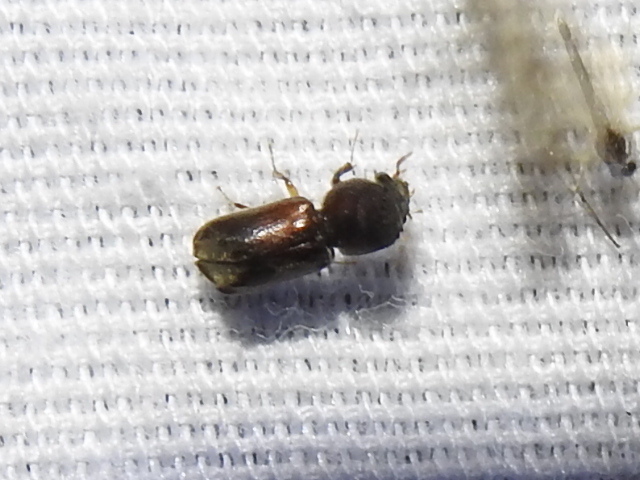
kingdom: Animalia
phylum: Arthropoda
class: Insecta
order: Coleoptera
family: Bostrichidae
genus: Xylobiops
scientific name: Xylobiops basilaris
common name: Red-shouldered bostrichid
